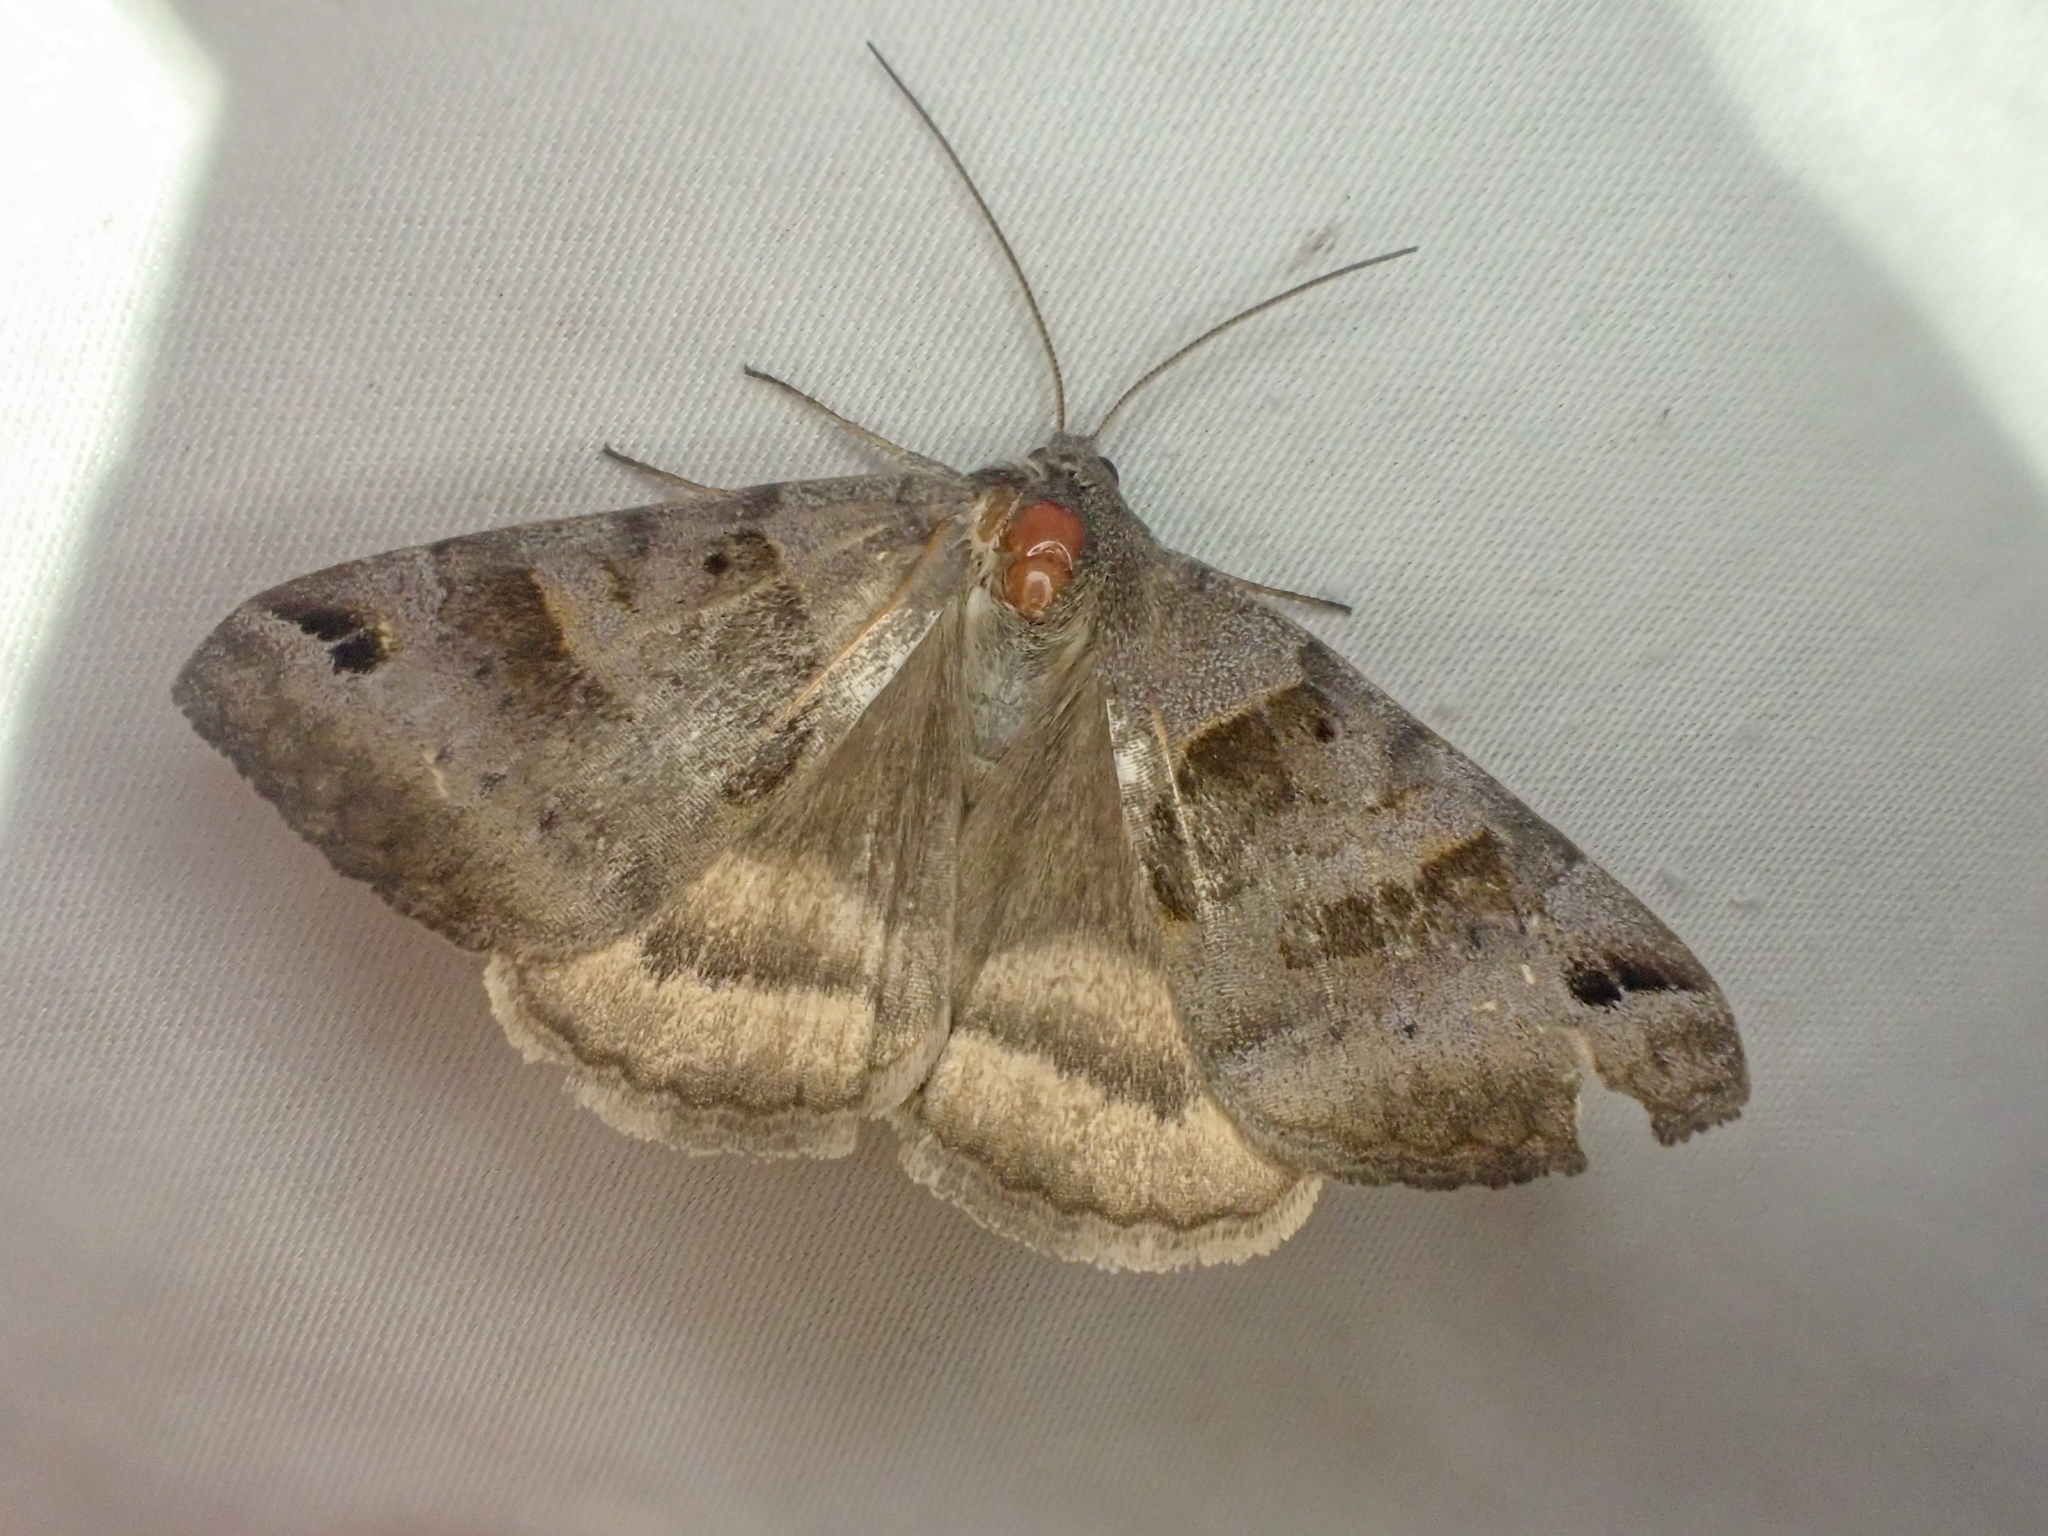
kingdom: Animalia
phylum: Arthropoda
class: Insecta
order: Lepidoptera
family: Erebidae
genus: Caenurgina
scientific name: Caenurgina erechtea
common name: Forage looper moth
